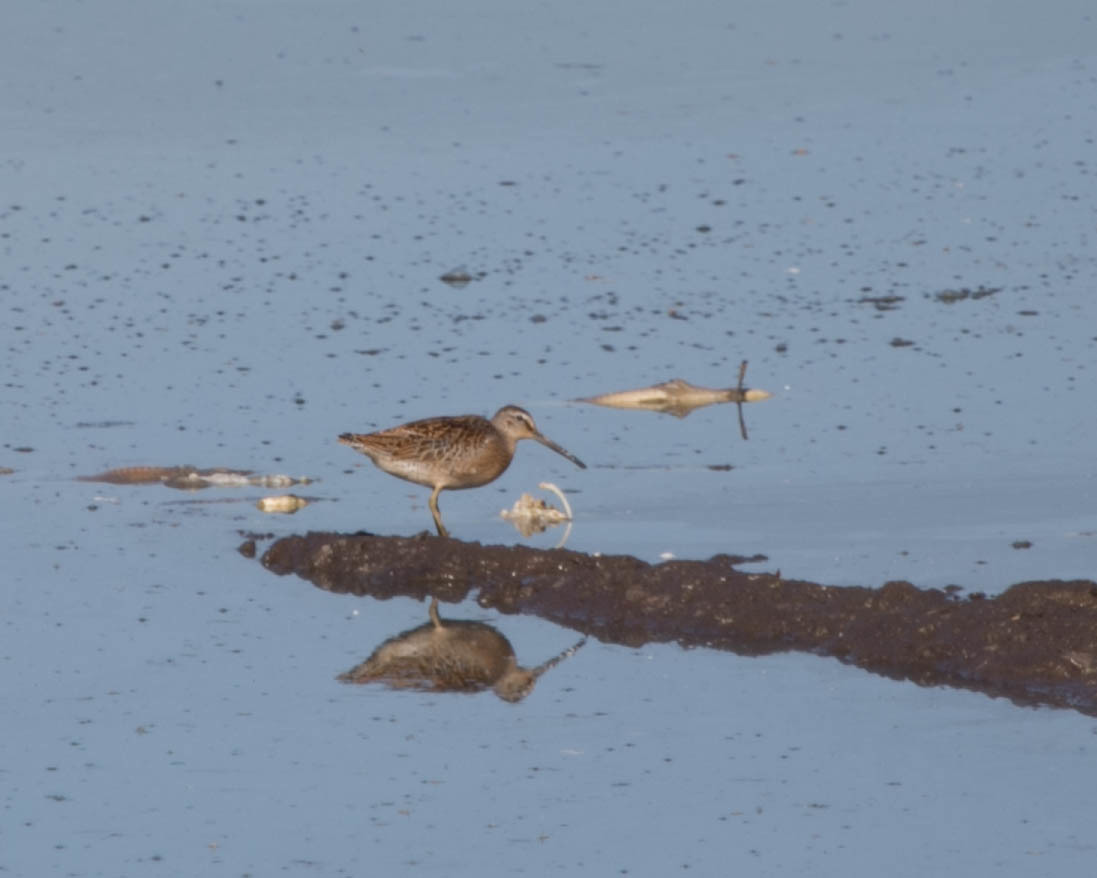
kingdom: Animalia
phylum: Chordata
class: Aves
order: Charadriiformes
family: Scolopacidae
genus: Limnodromus
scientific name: Limnodromus griseus
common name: Short-billed dowitcher
